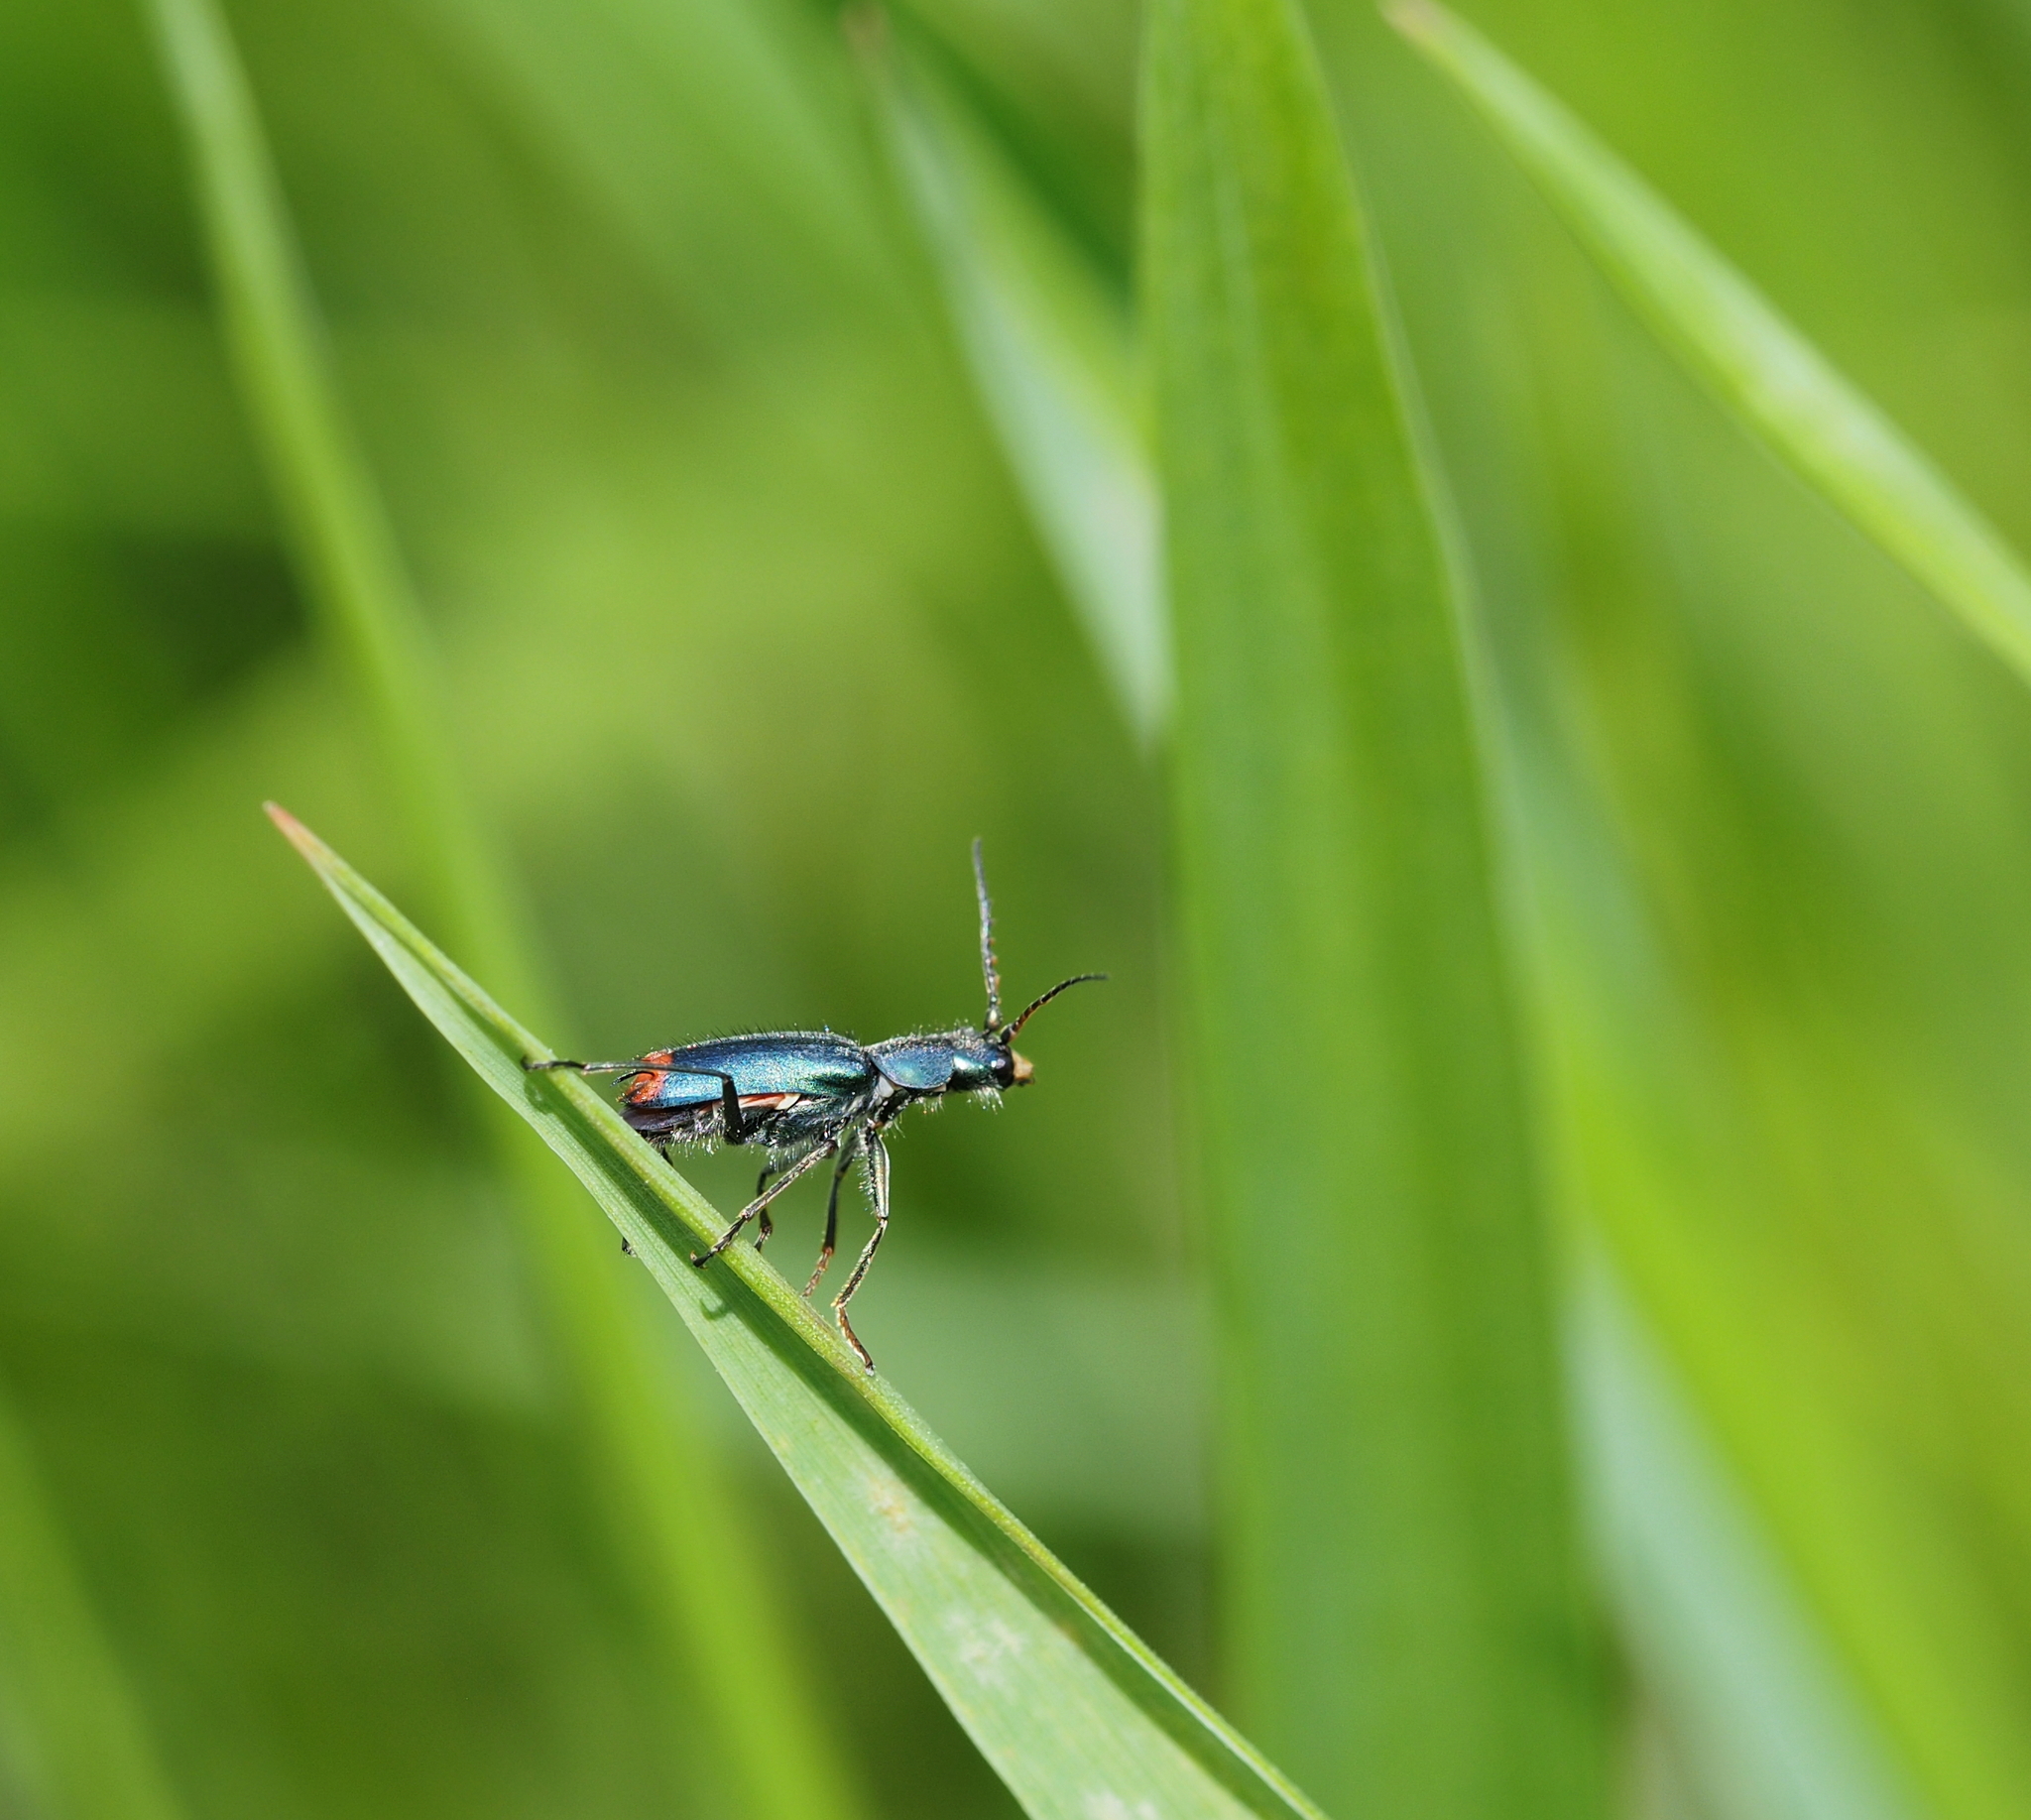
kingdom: Animalia
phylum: Arthropoda
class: Insecta
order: Coleoptera
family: Melyridae
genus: Malachius
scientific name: Malachius bipustulatus
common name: Malachite beetle
